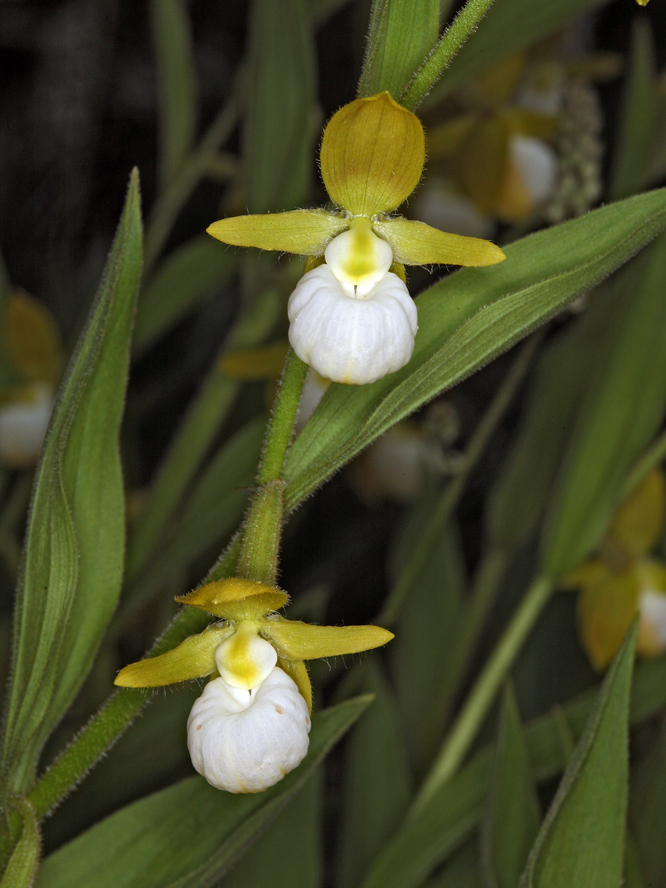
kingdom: Plantae
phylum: Tracheophyta
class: Liliopsida
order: Asparagales
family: Orchidaceae
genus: Cypripedium
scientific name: Cypripedium californicum
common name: California lady's slipper
